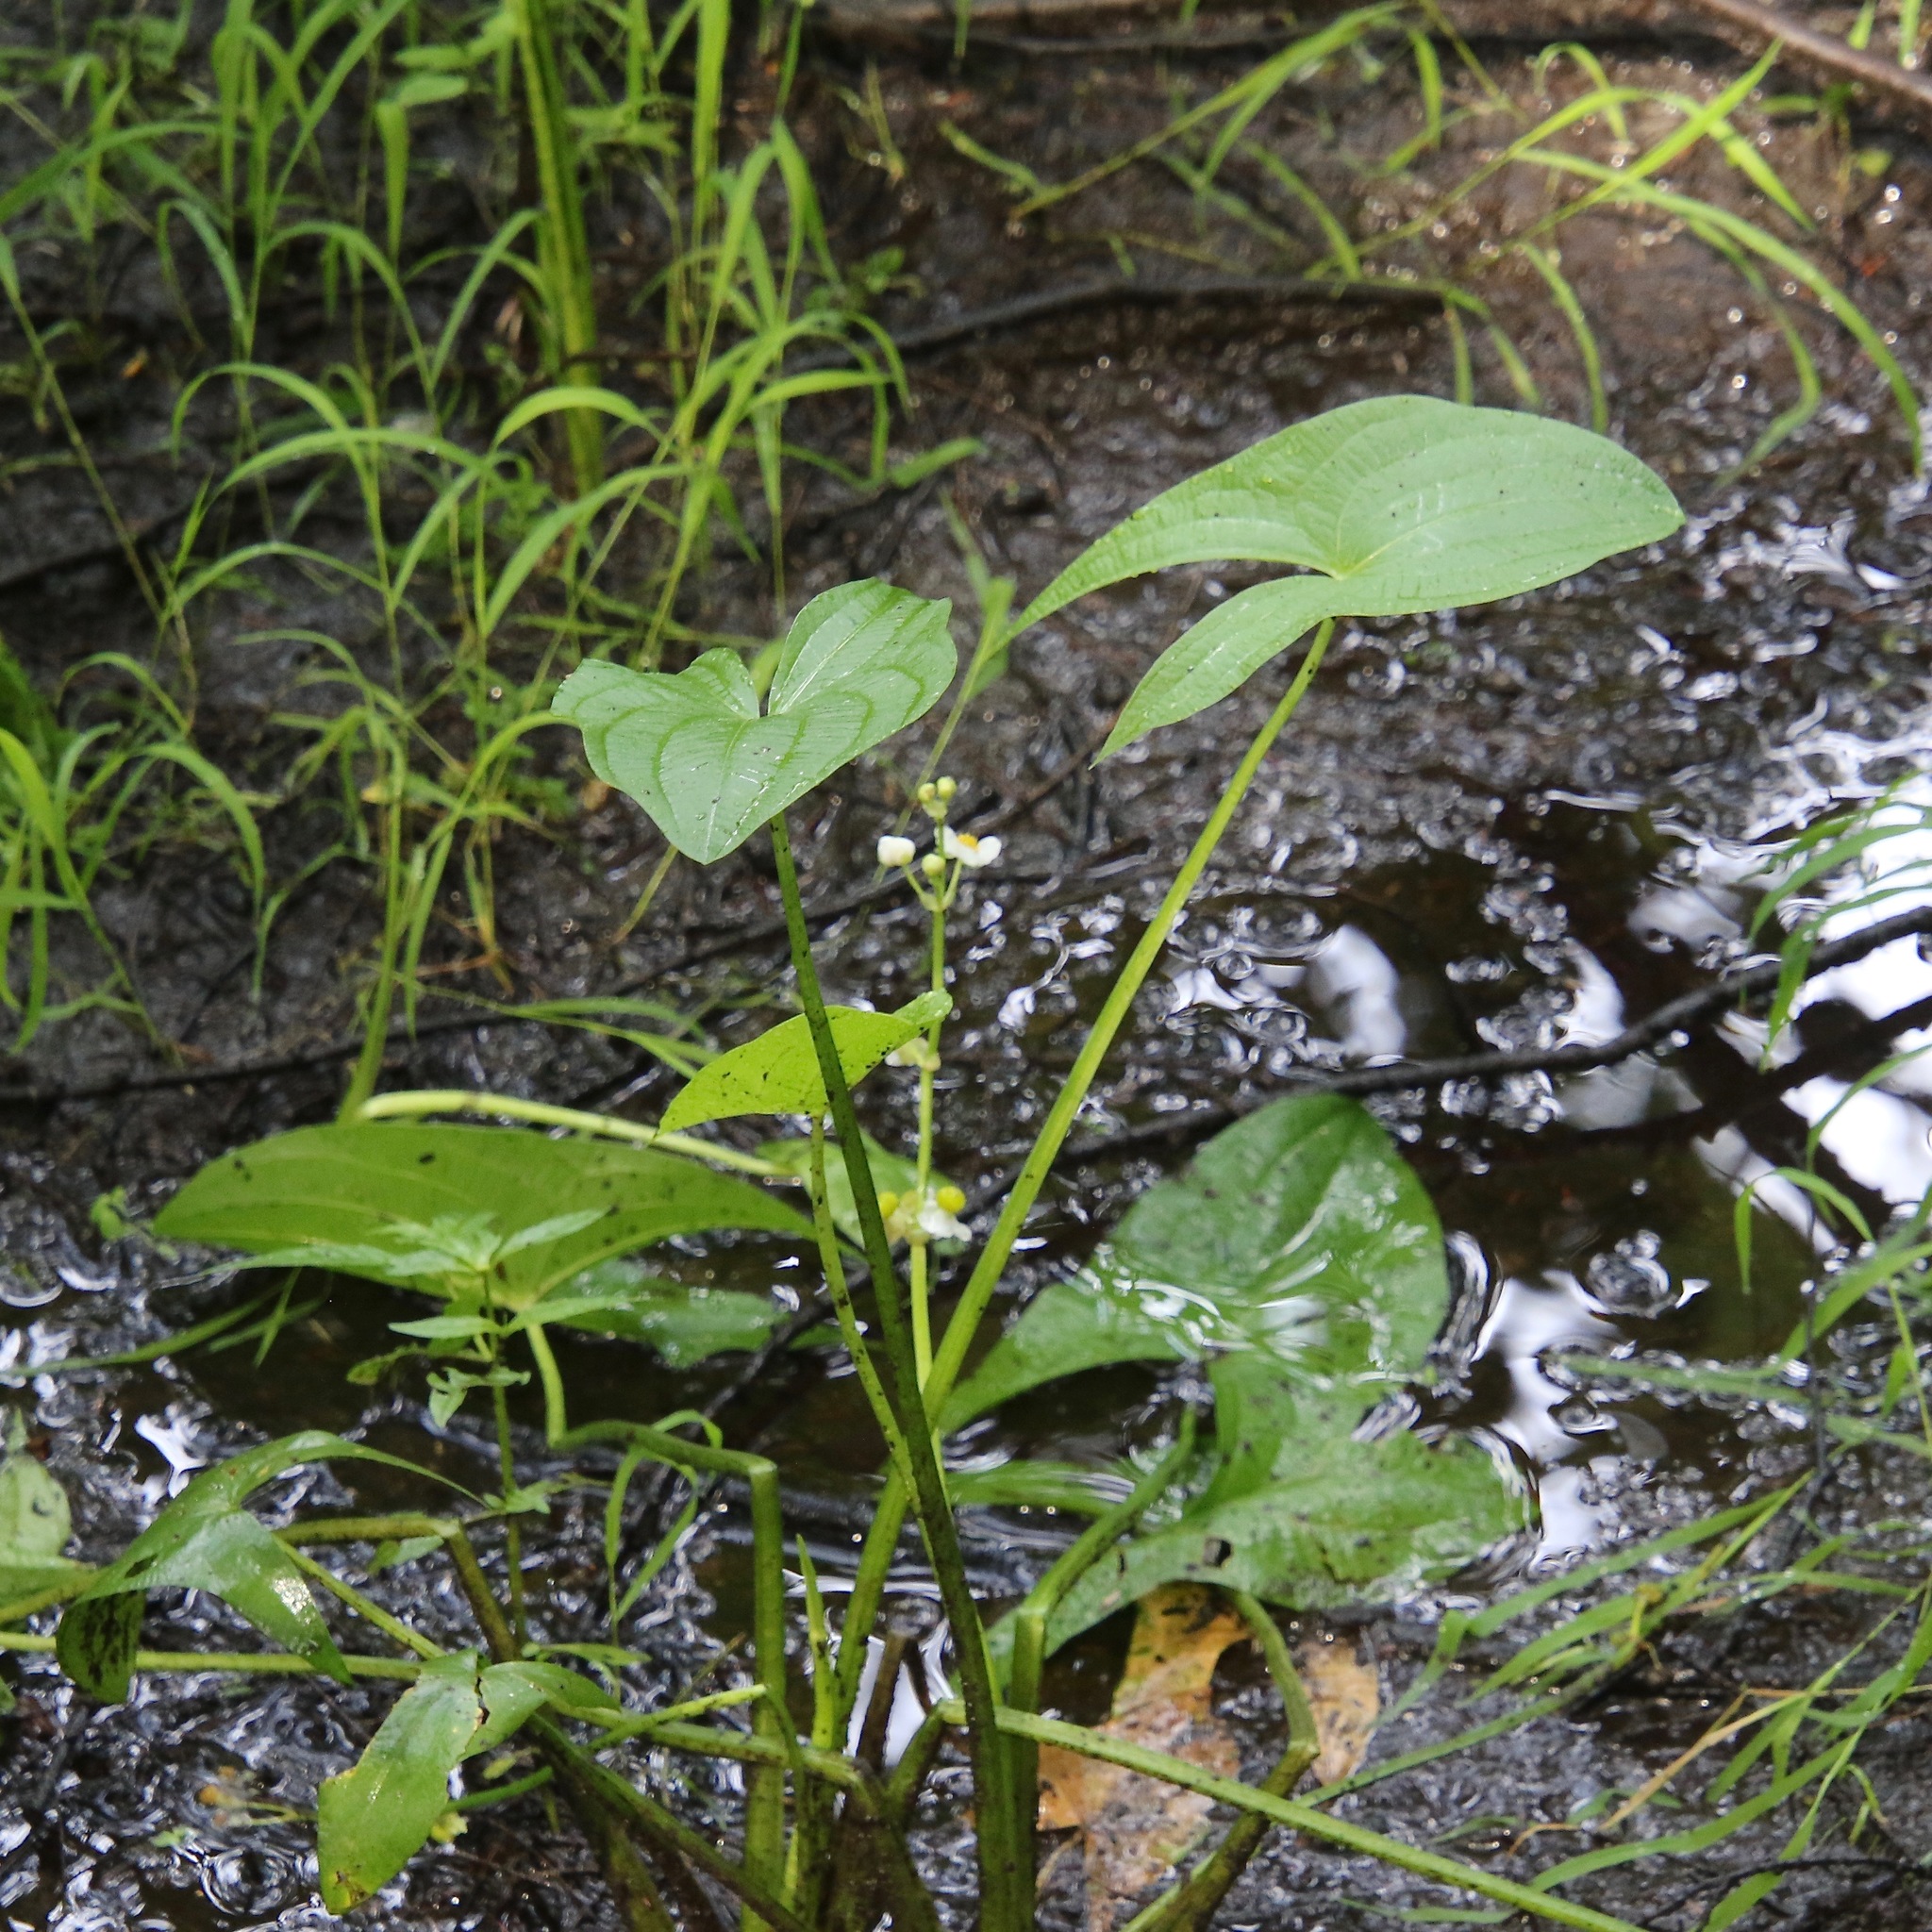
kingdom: Plantae
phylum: Tracheophyta
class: Liliopsida
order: Alismatales
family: Alismataceae
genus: Sagittaria
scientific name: Sagittaria latifolia
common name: Duck-potato
